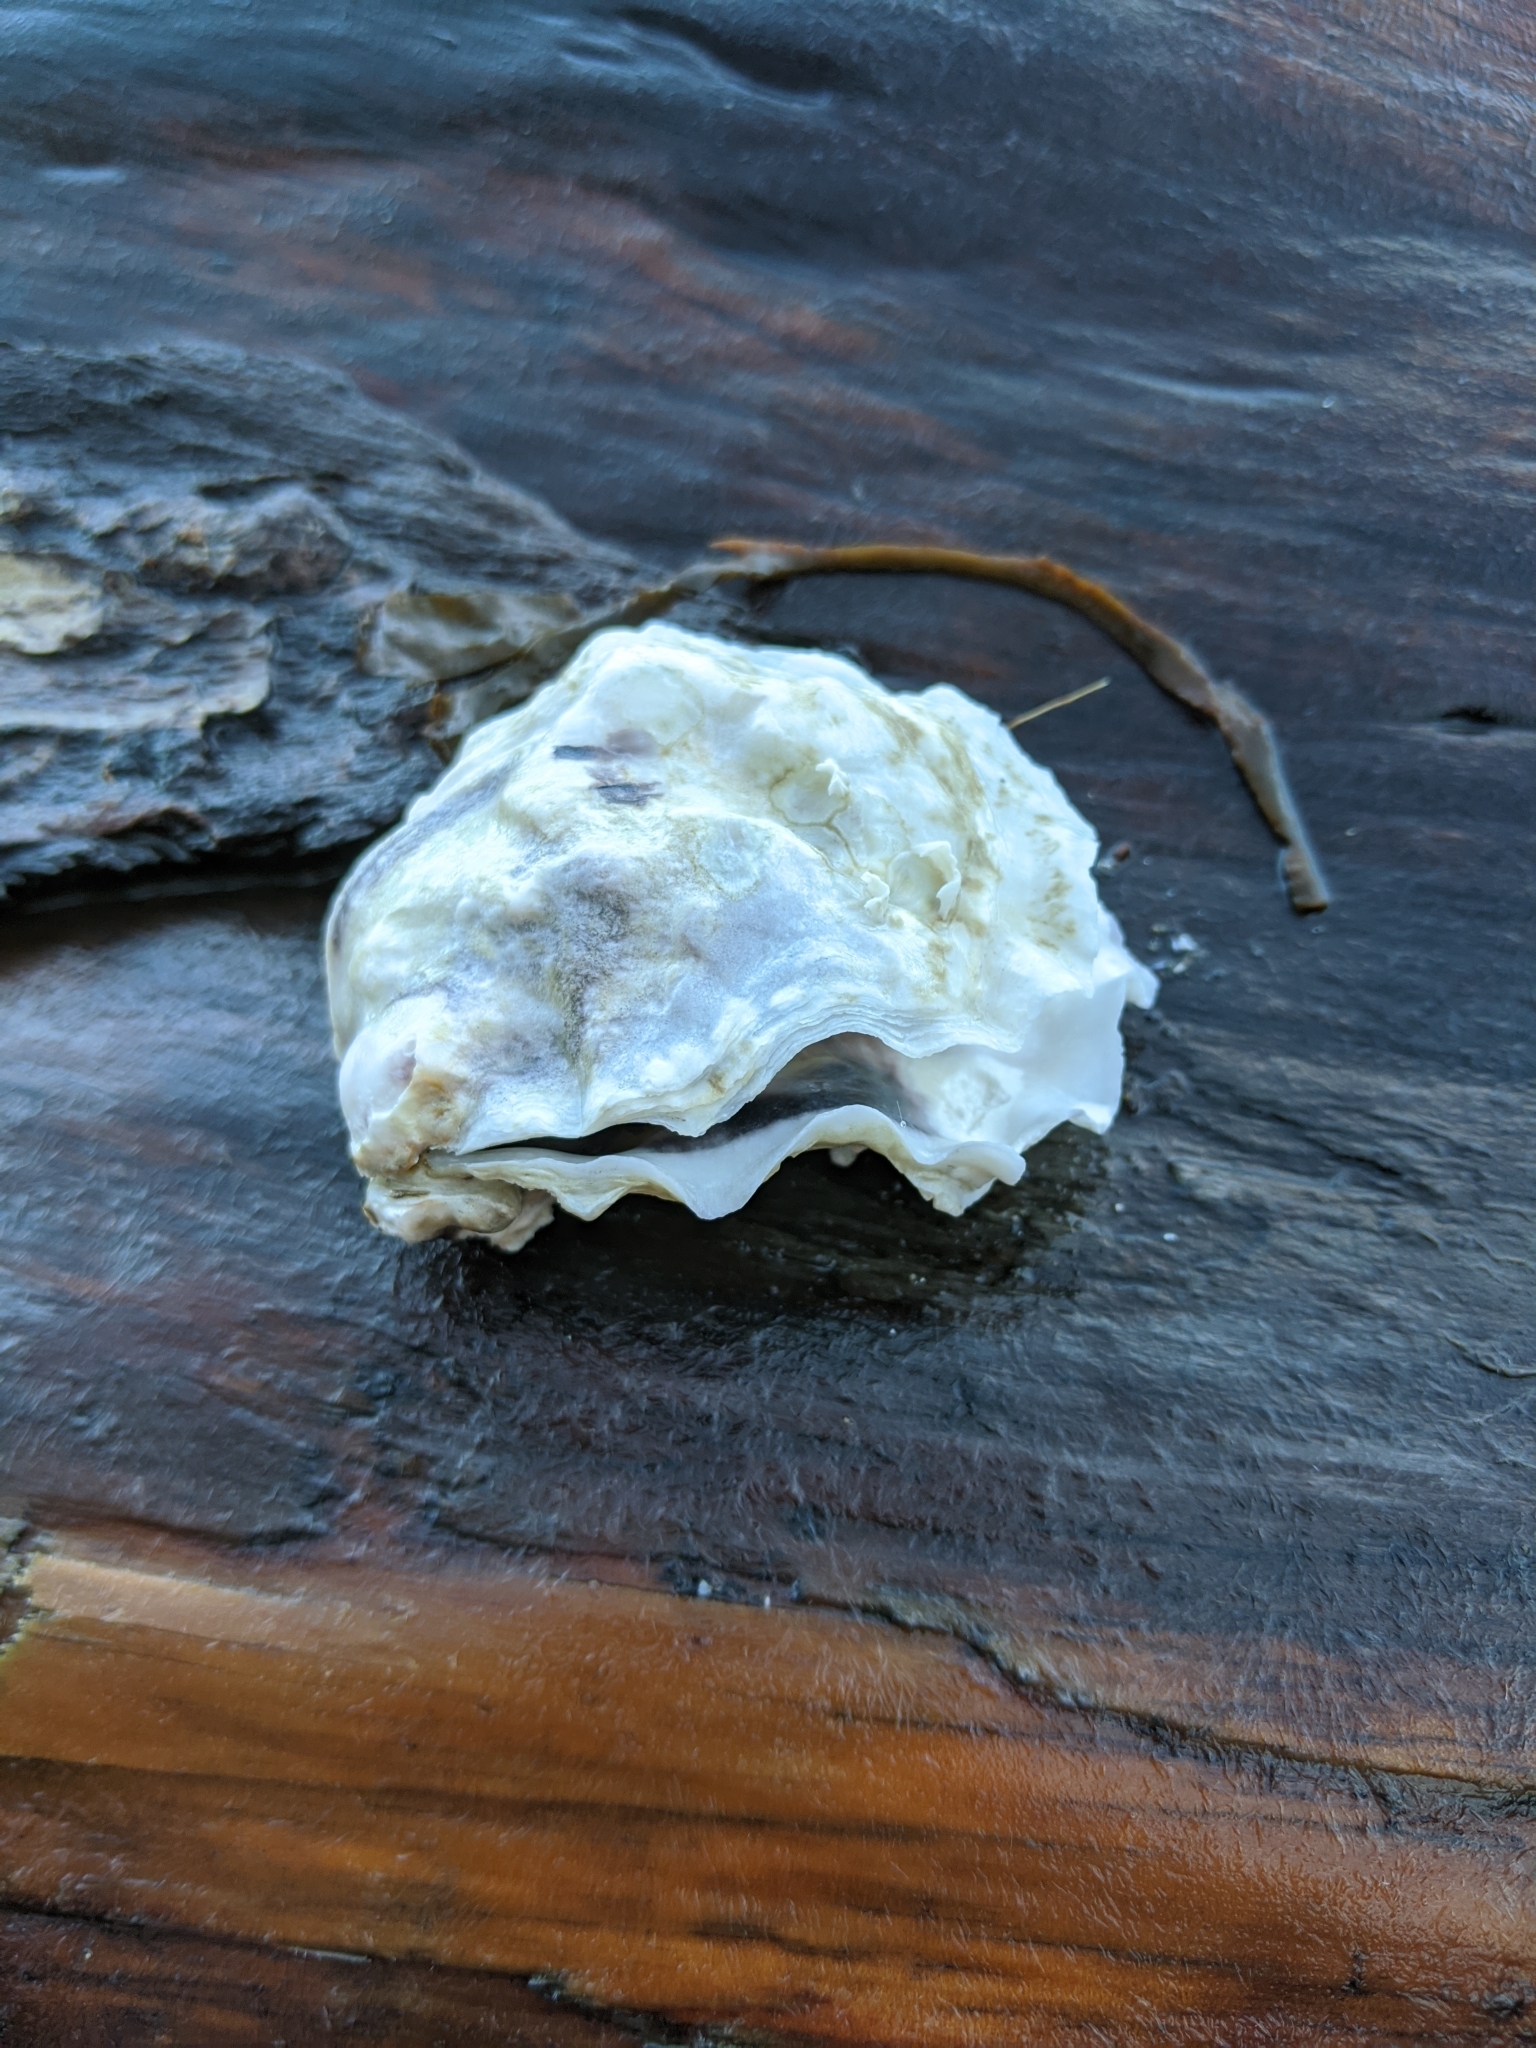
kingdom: Animalia
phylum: Mollusca
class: Bivalvia
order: Ostreida
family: Ostreidae
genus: Magallana
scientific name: Magallana gigas
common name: Pacific oyster
